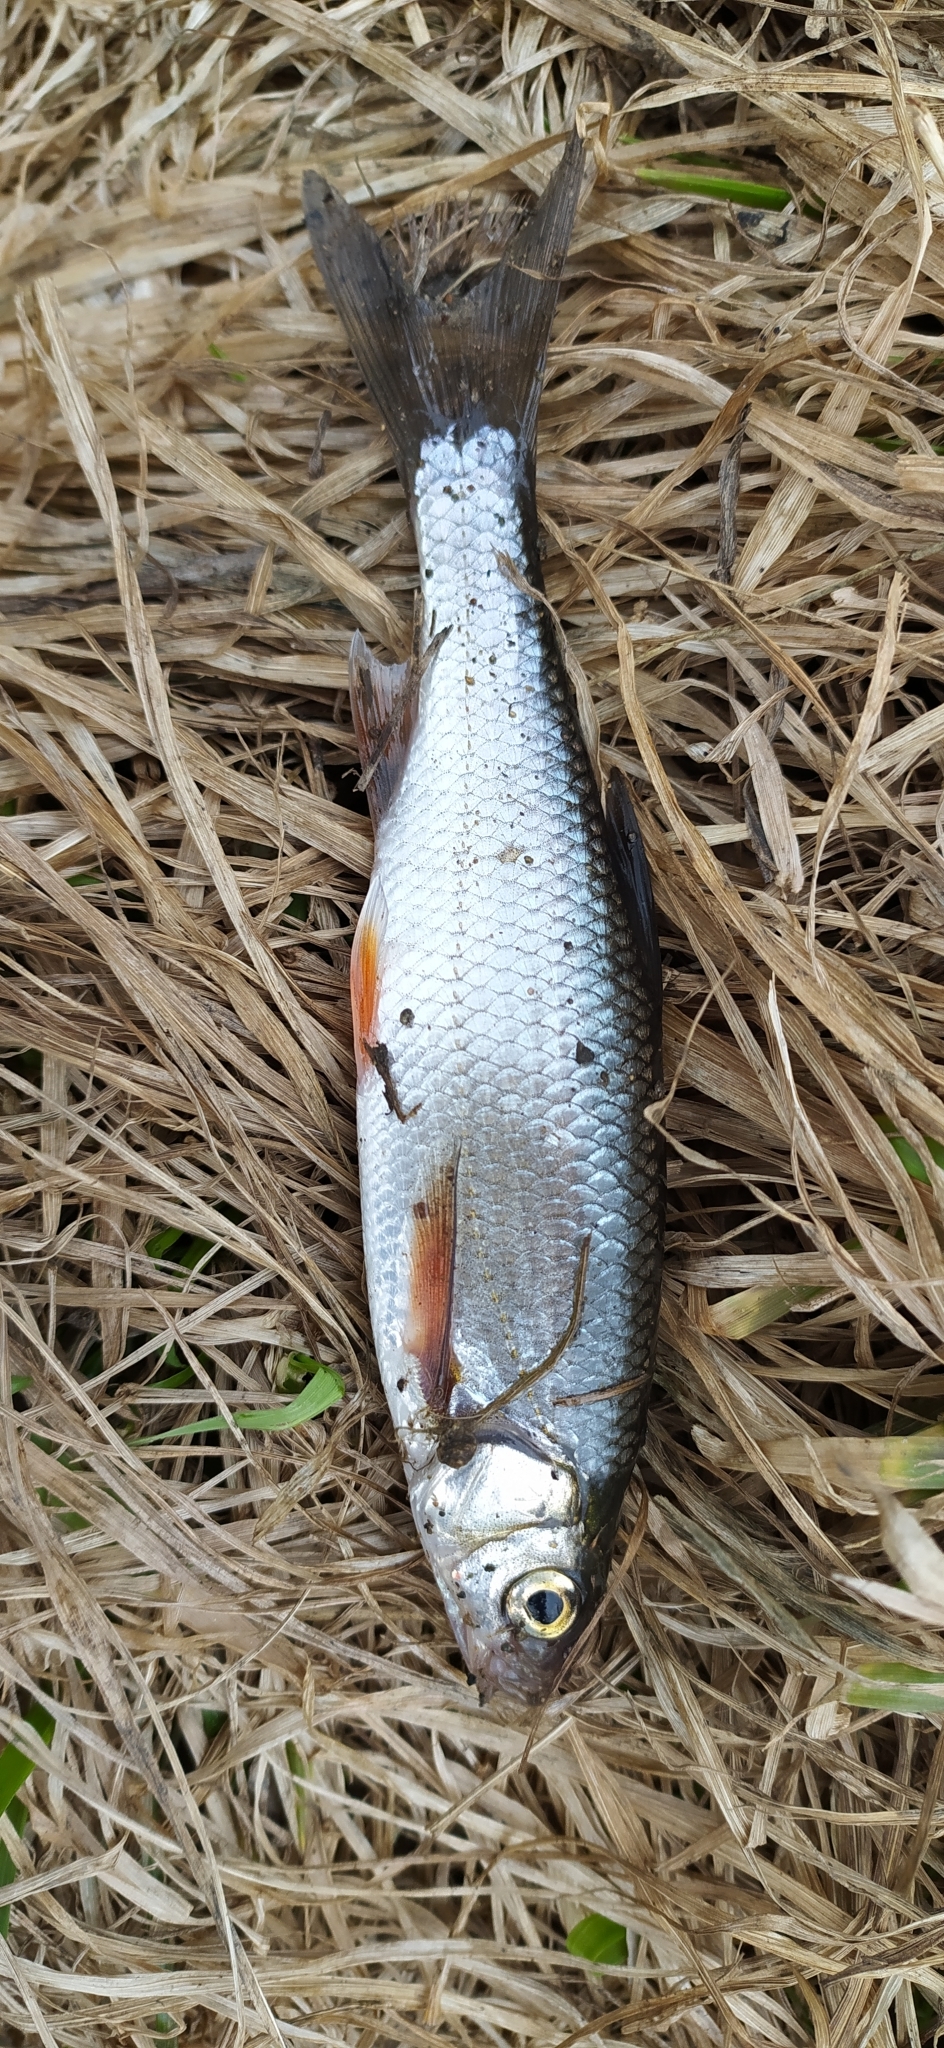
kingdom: Animalia
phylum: Chordata
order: Cypriniformes
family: Cyprinidae
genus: Leuciscus
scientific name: Leuciscus leuciscus
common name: Dace
